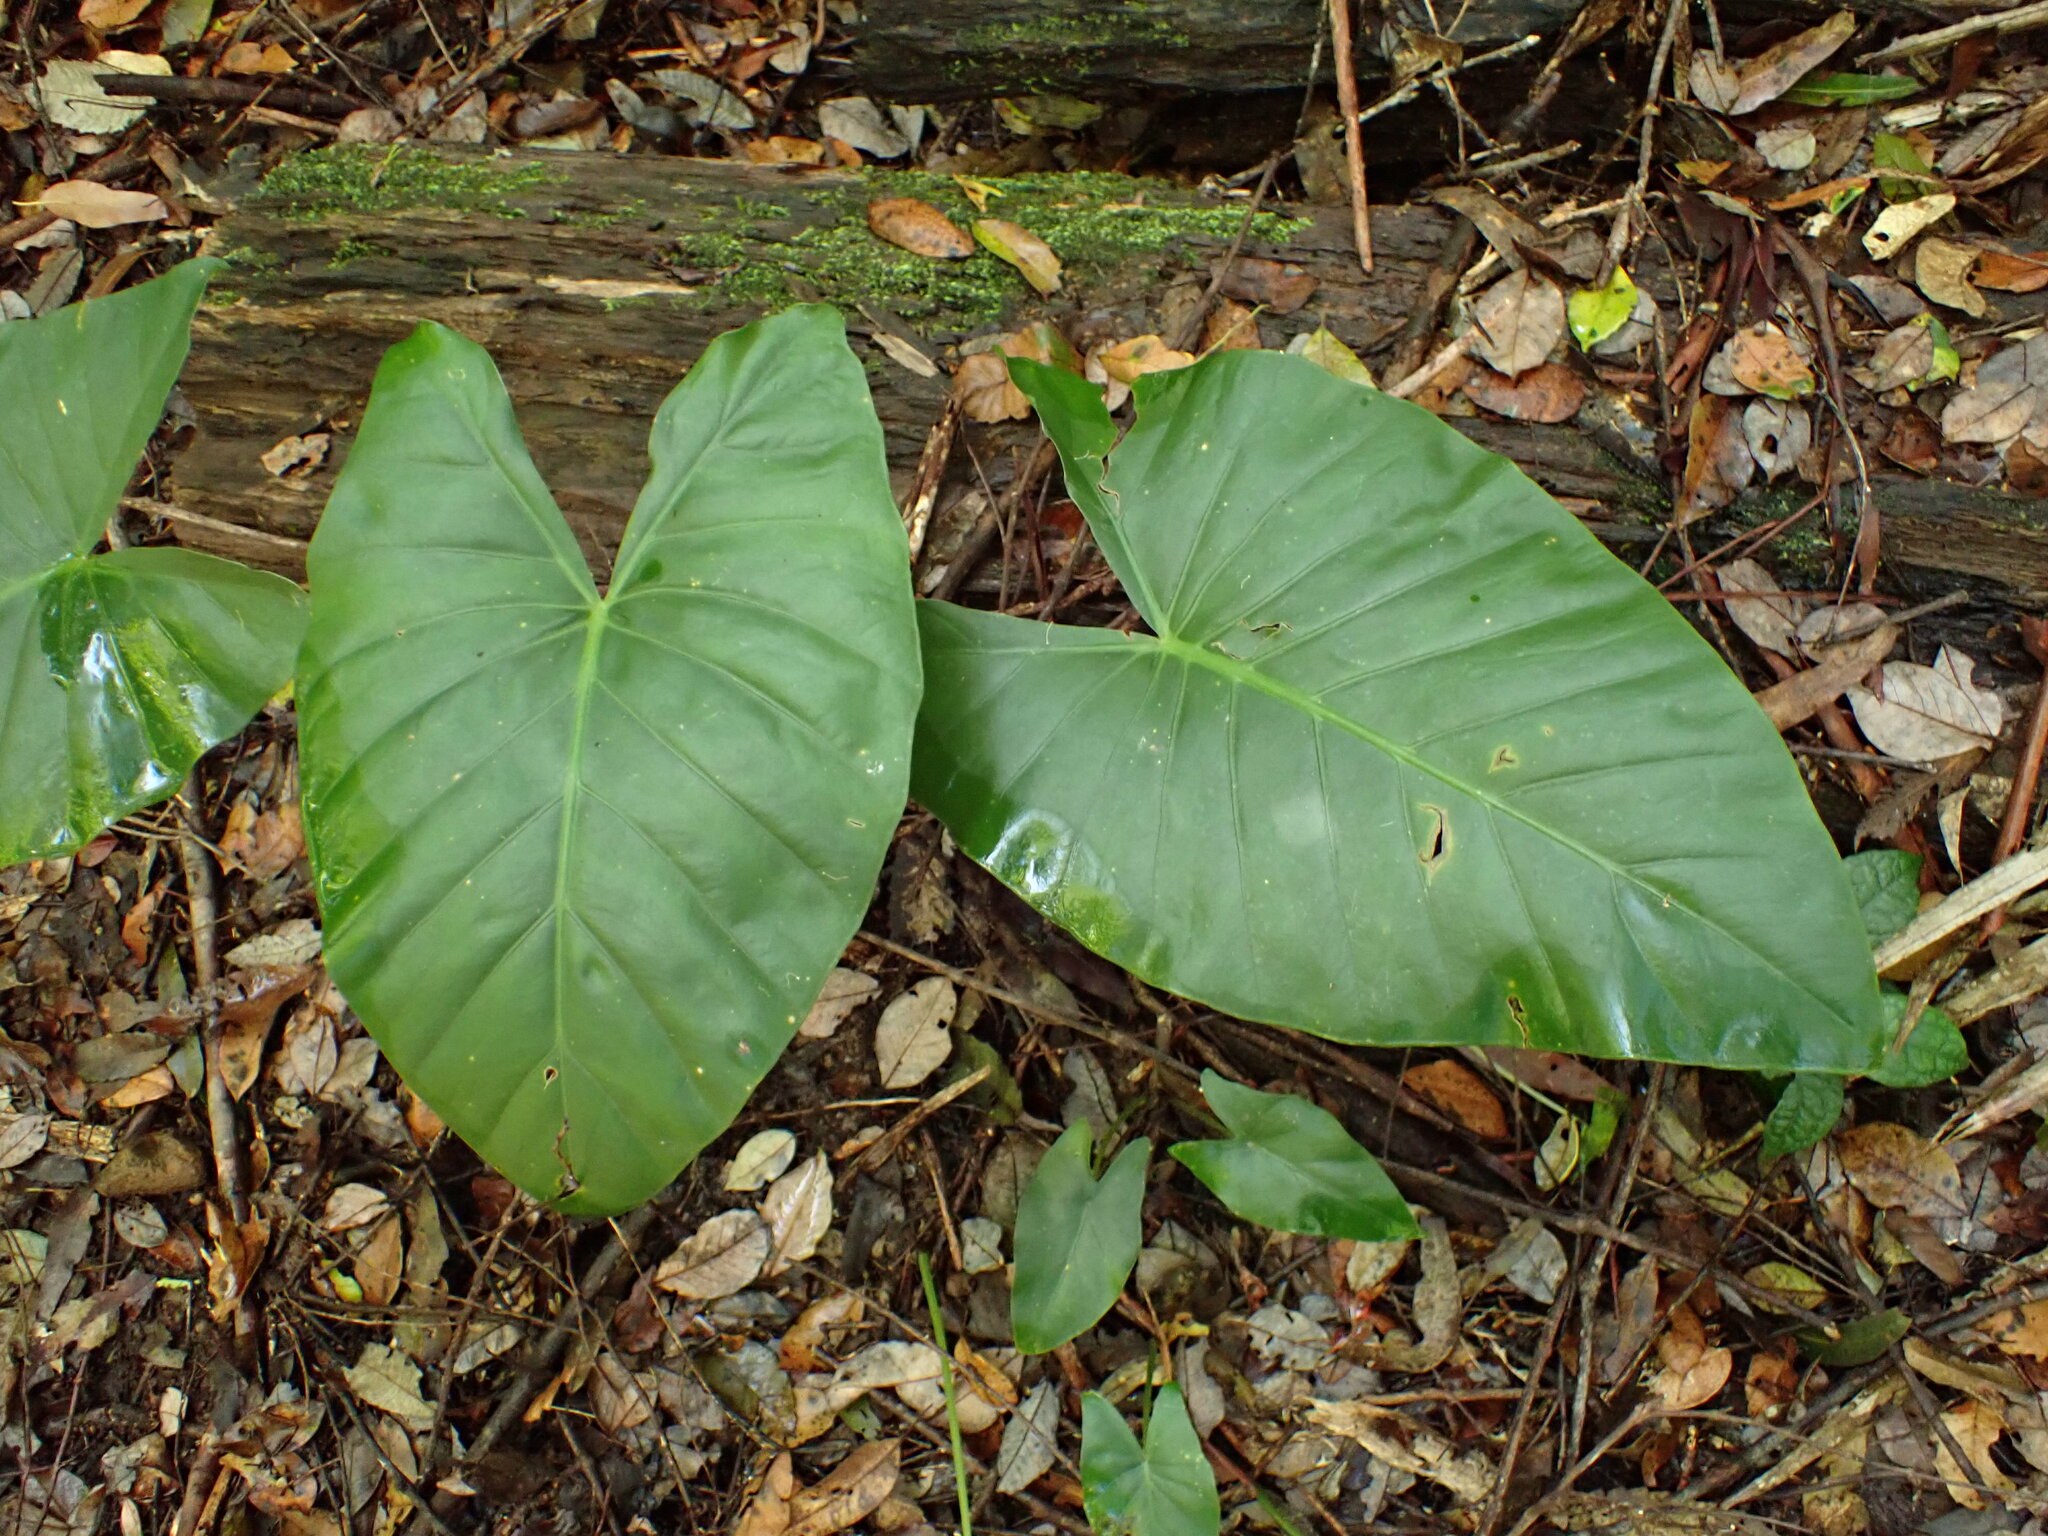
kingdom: Plantae
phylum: Tracheophyta
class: Liliopsida
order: Alismatales
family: Araceae
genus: Alocasia
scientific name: Alocasia brisbanensis
